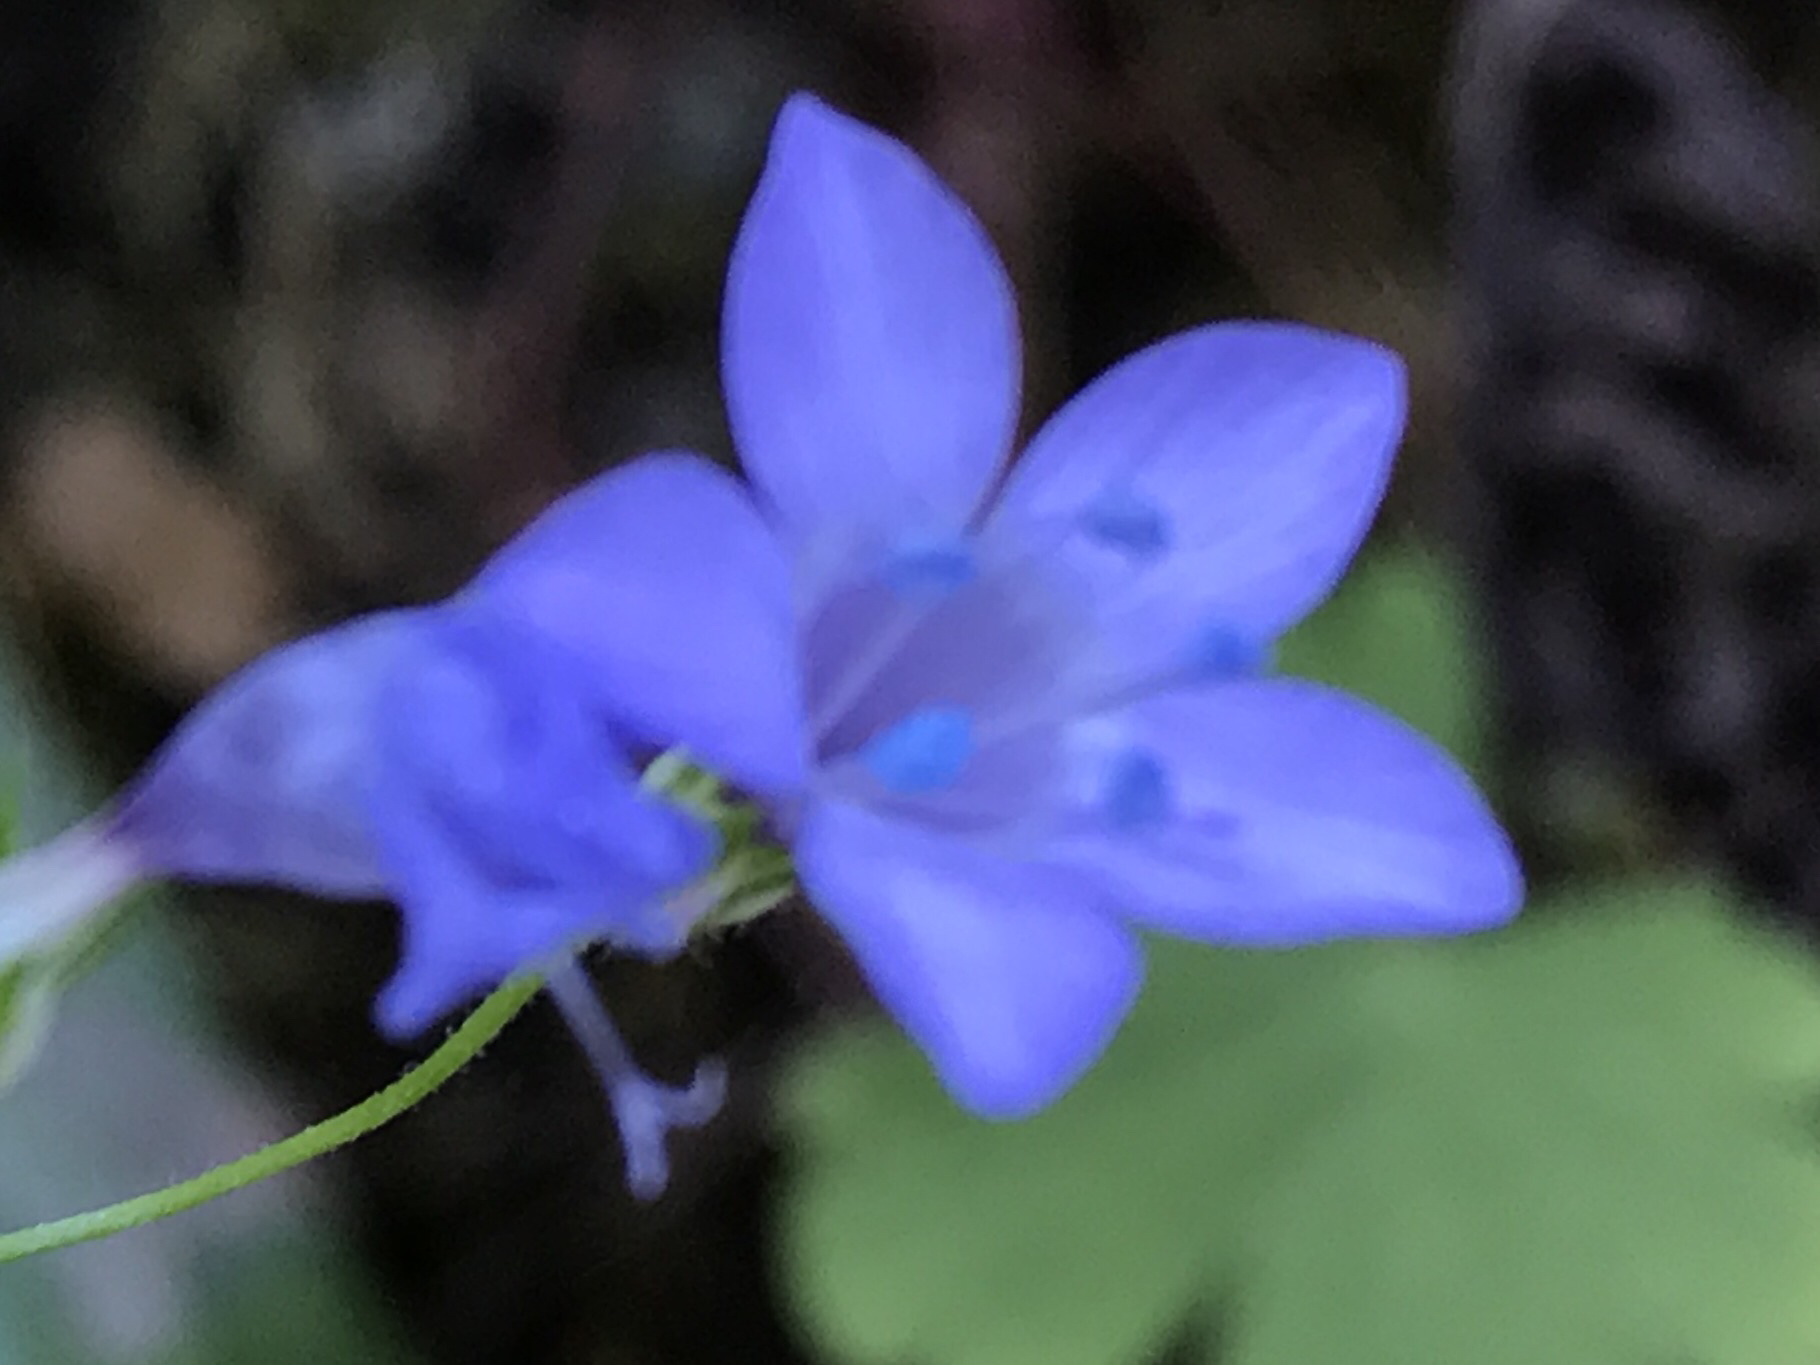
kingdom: Plantae
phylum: Tracheophyta
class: Magnoliopsida
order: Ericales
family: Polemoniaceae
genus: Gilia
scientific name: Gilia achilleifolia
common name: California gily-flower
